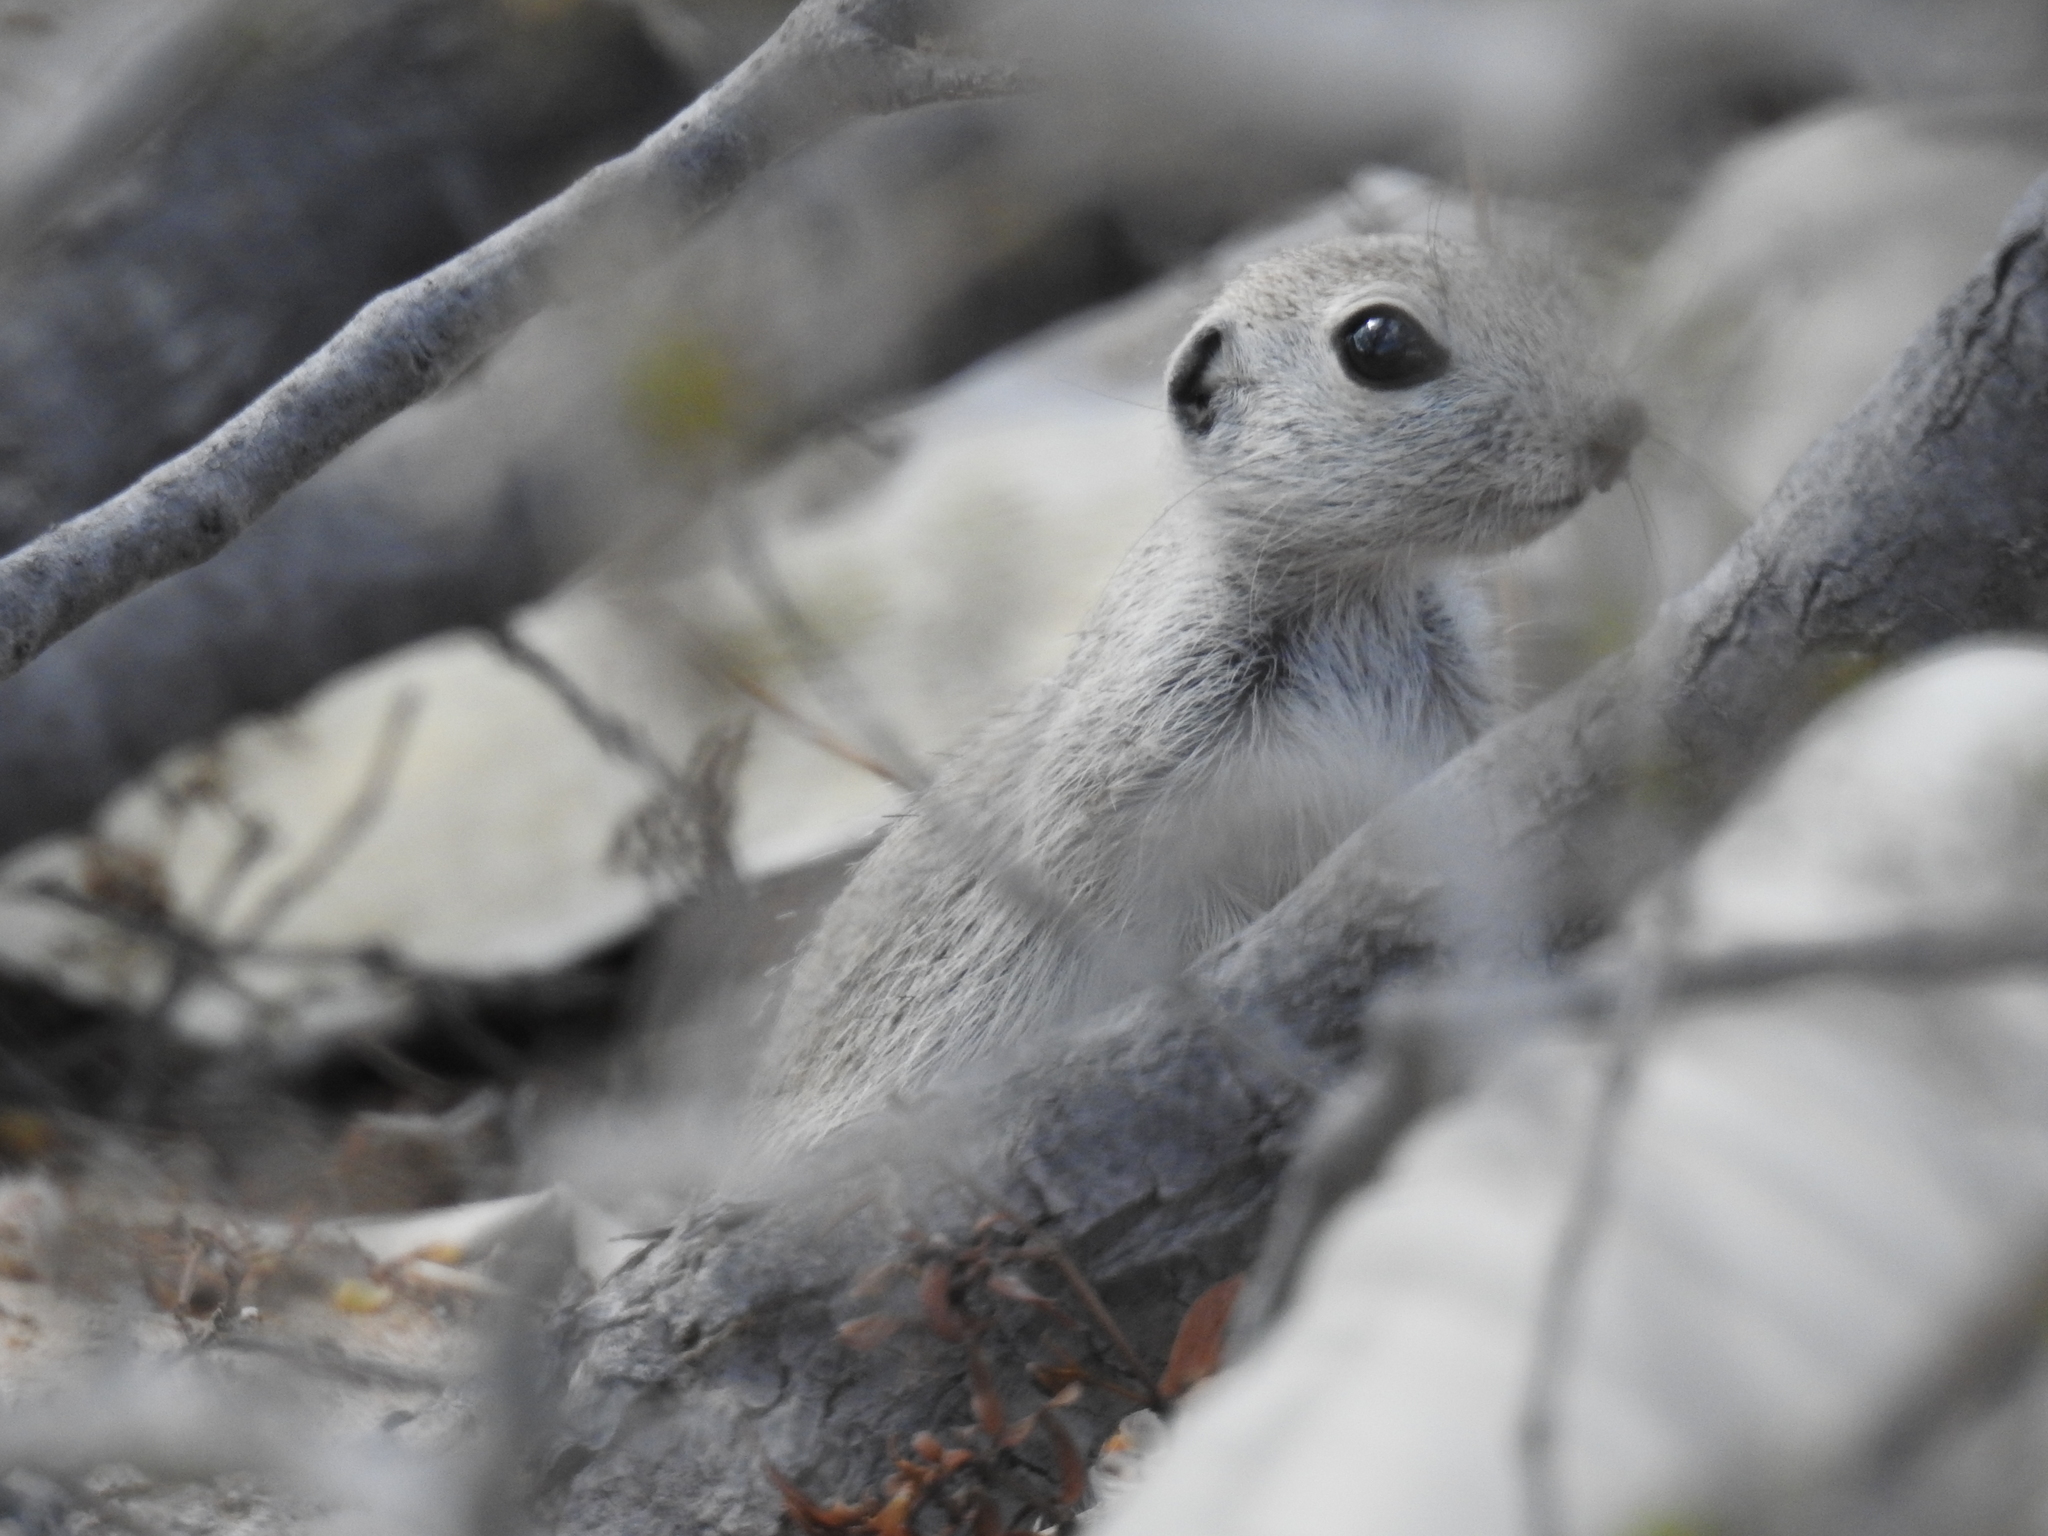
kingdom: Animalia
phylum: Chordata
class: Mammalia
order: Rodentia
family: Sciuridae
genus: Xerospermophilus
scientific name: Xerospermophilus tereticaudus
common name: Round-tailed ground squirrel
